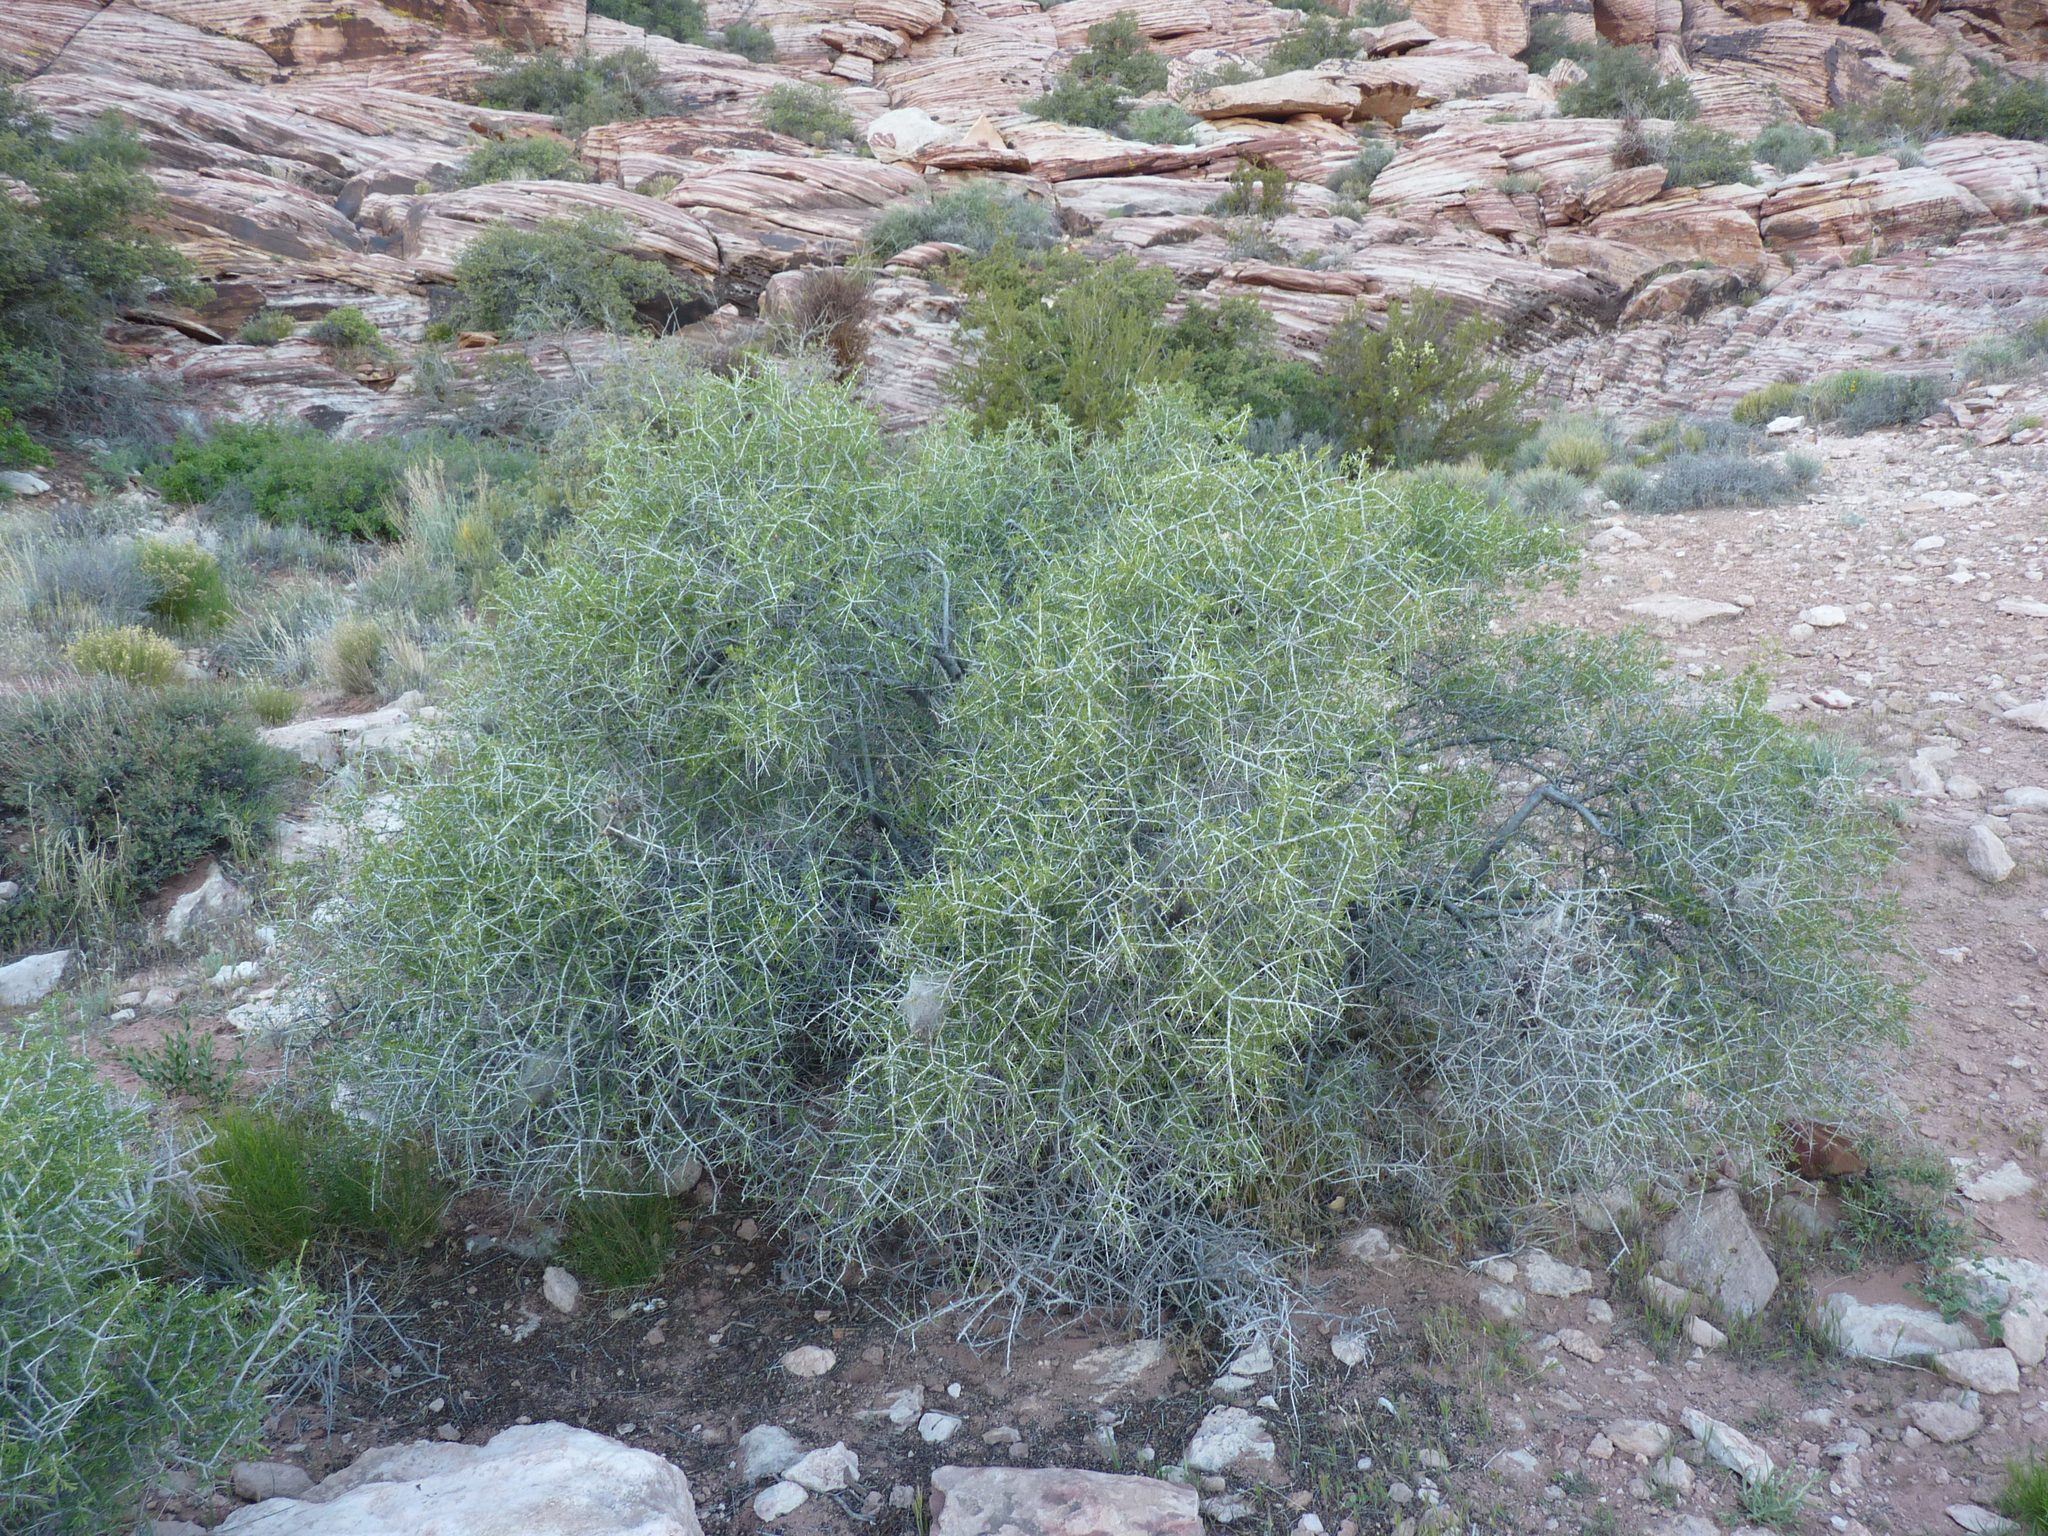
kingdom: Plantae
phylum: Tracheophyta
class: Magnoliopsida
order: Rosales
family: Rosaceae
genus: Prunus
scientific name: Prunus fasciculata
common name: Desert almond
